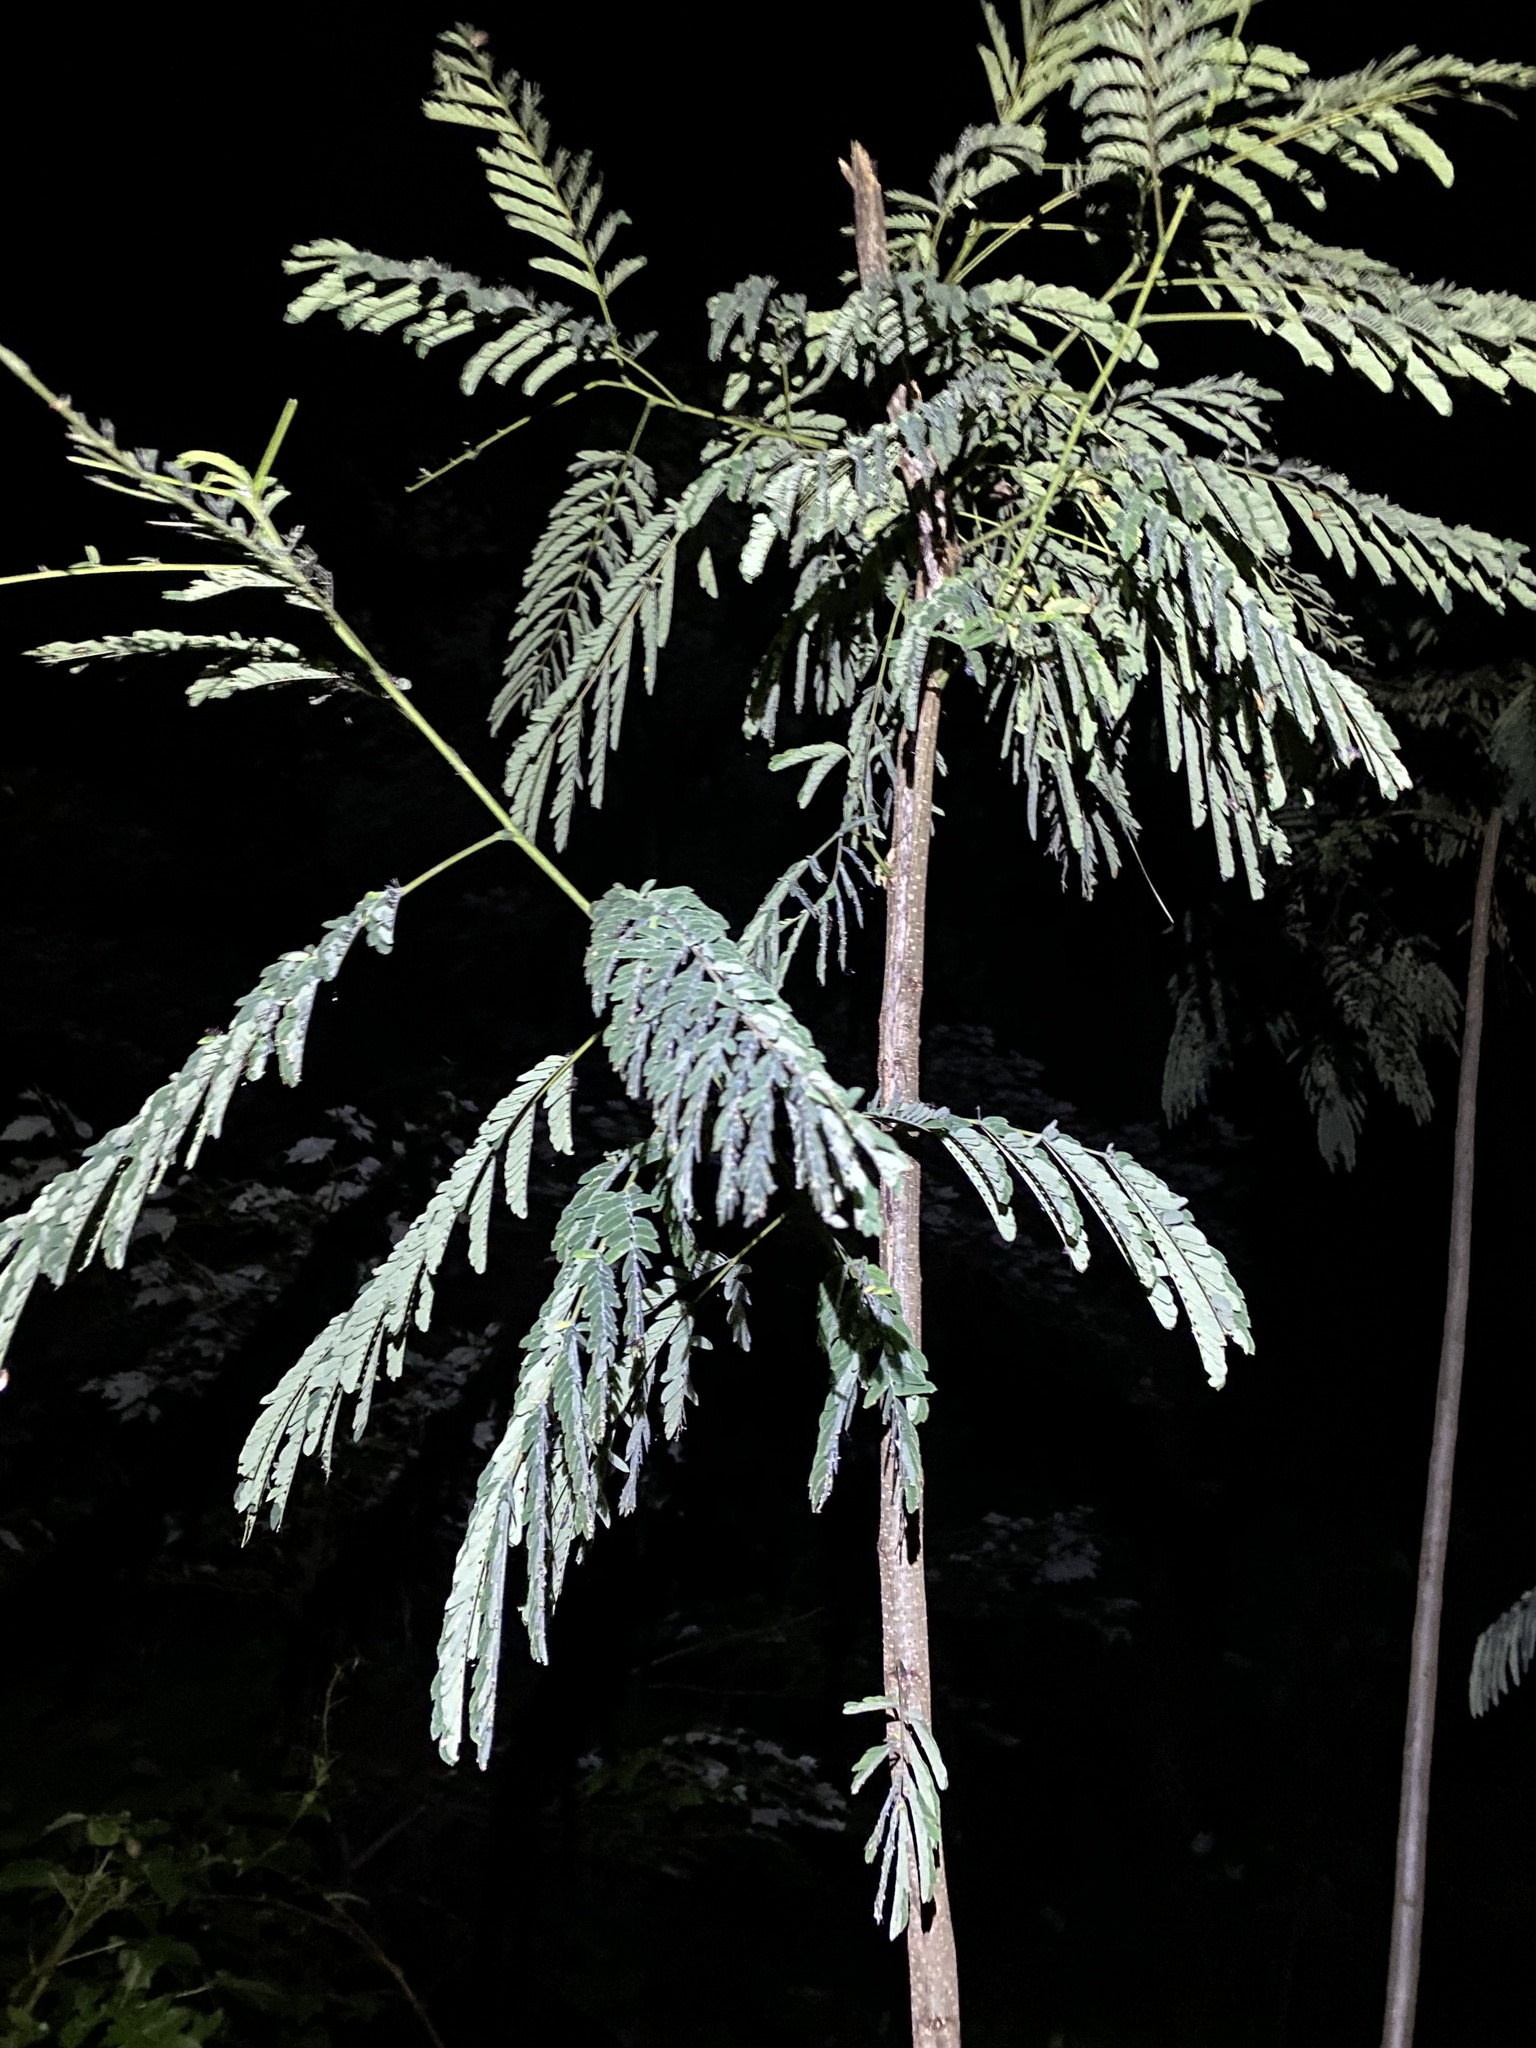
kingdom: Plantae
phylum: Tracheophyta
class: Magnoliopsida
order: Fabales
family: Fabaceae
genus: Albizia
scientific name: Albizia julibrissin
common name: Silktree
